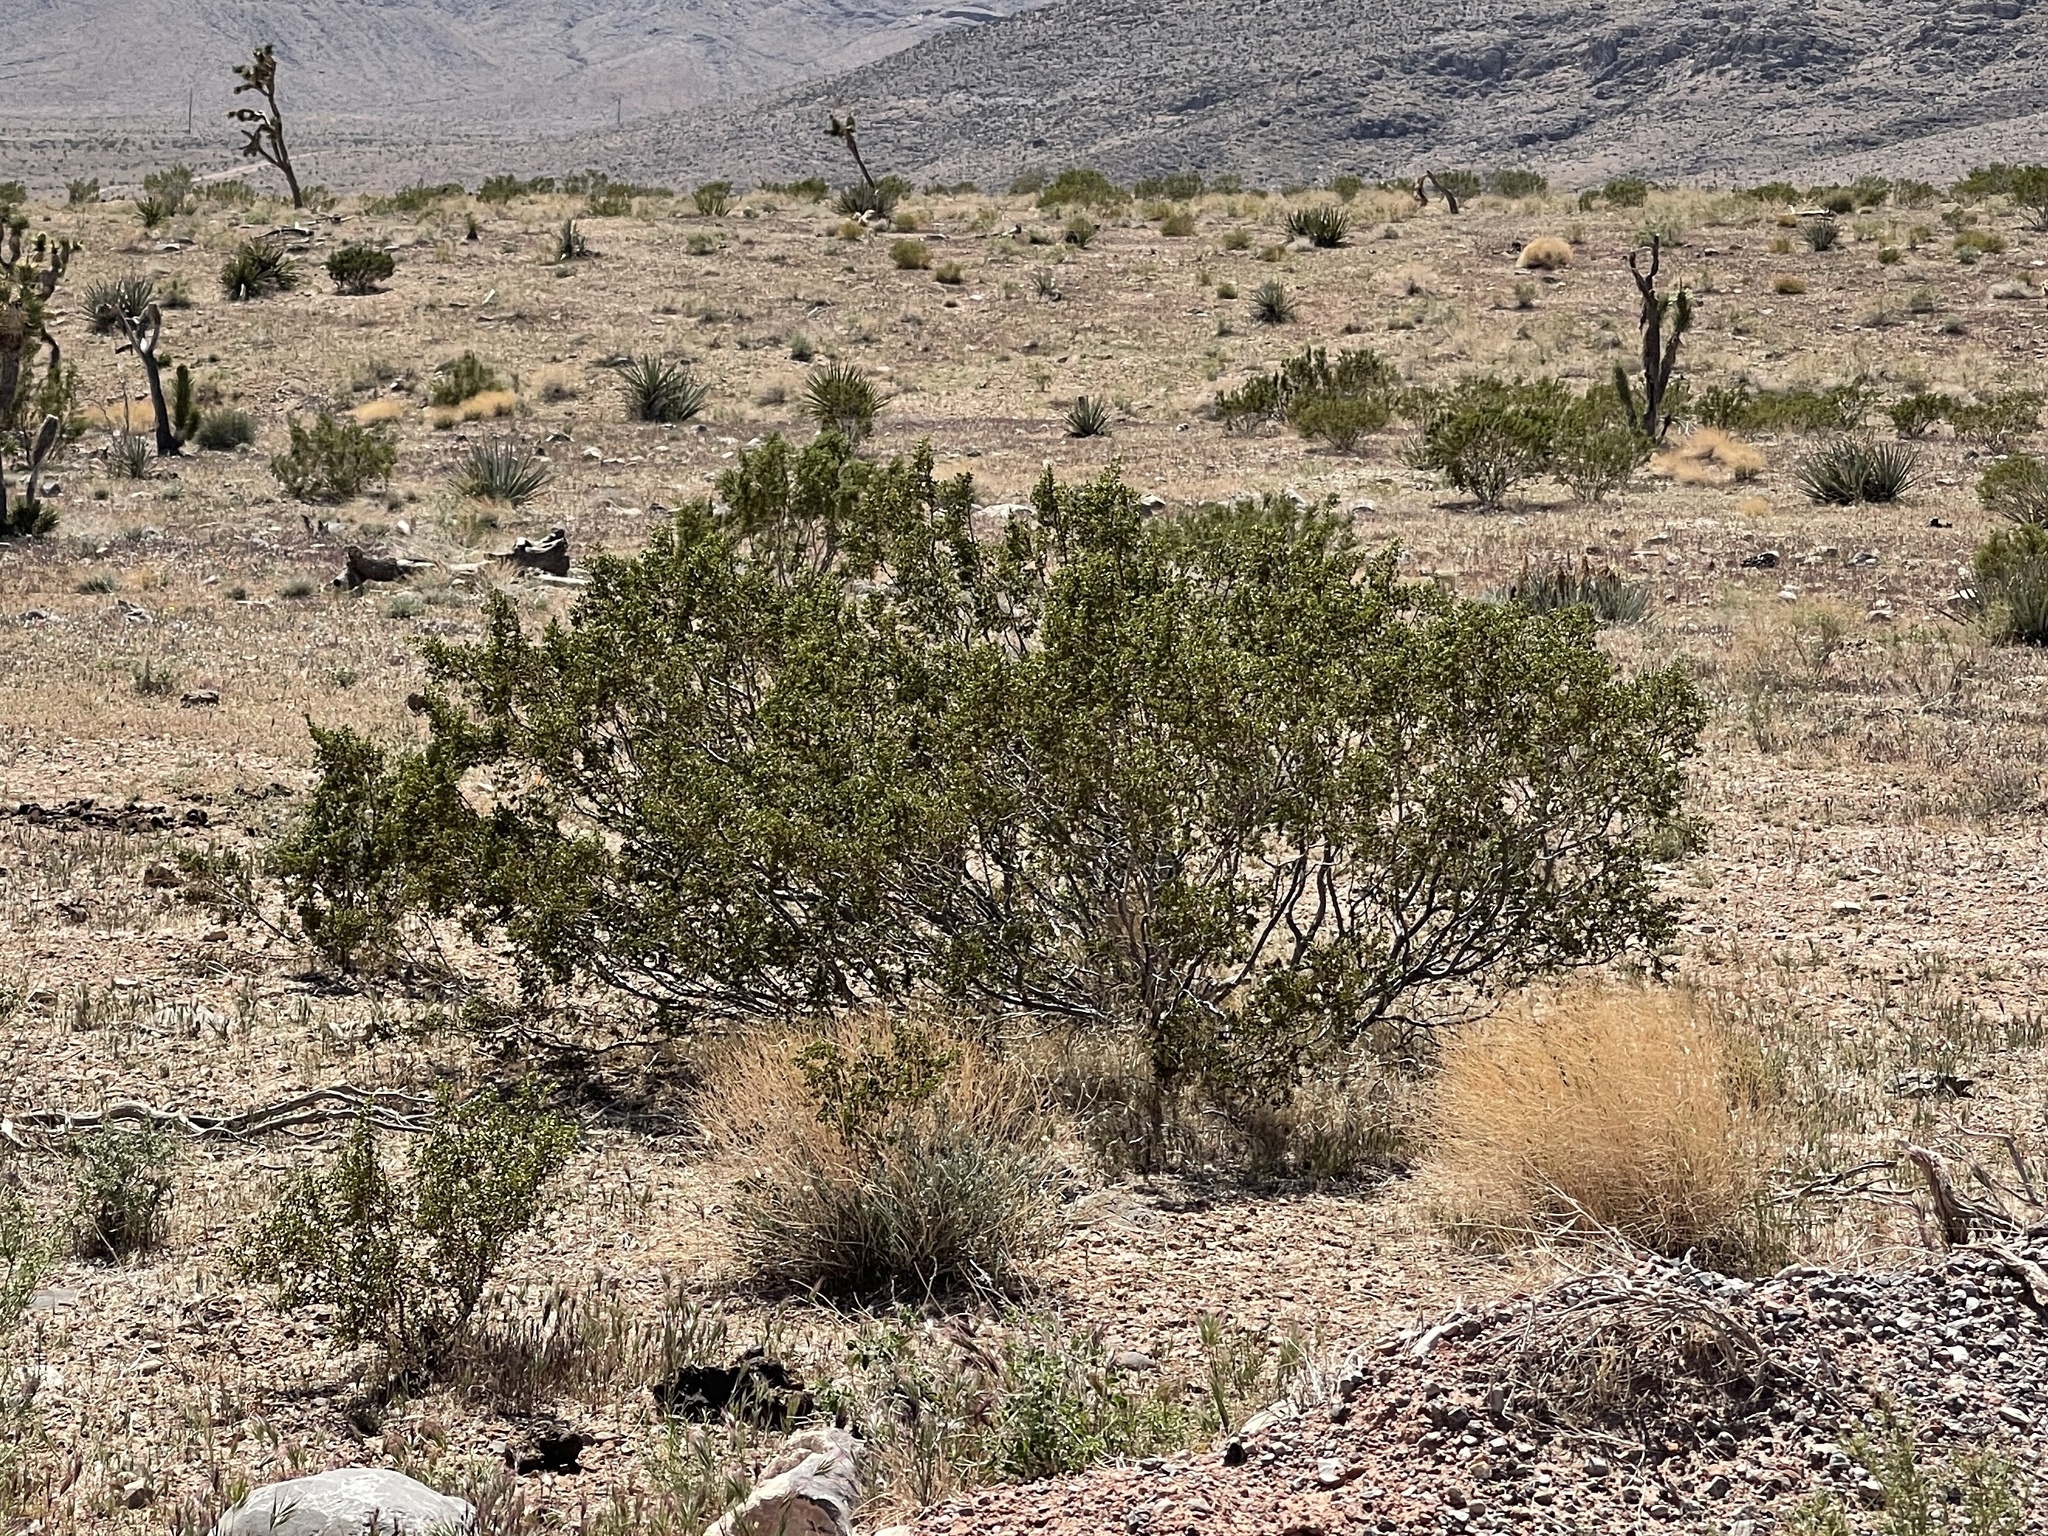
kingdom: Plantae
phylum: Tracheophyta
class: Magnoliopsida
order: Zygophyllales
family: Zygophyllaceae
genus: Larrea
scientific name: Larrea tridentata
